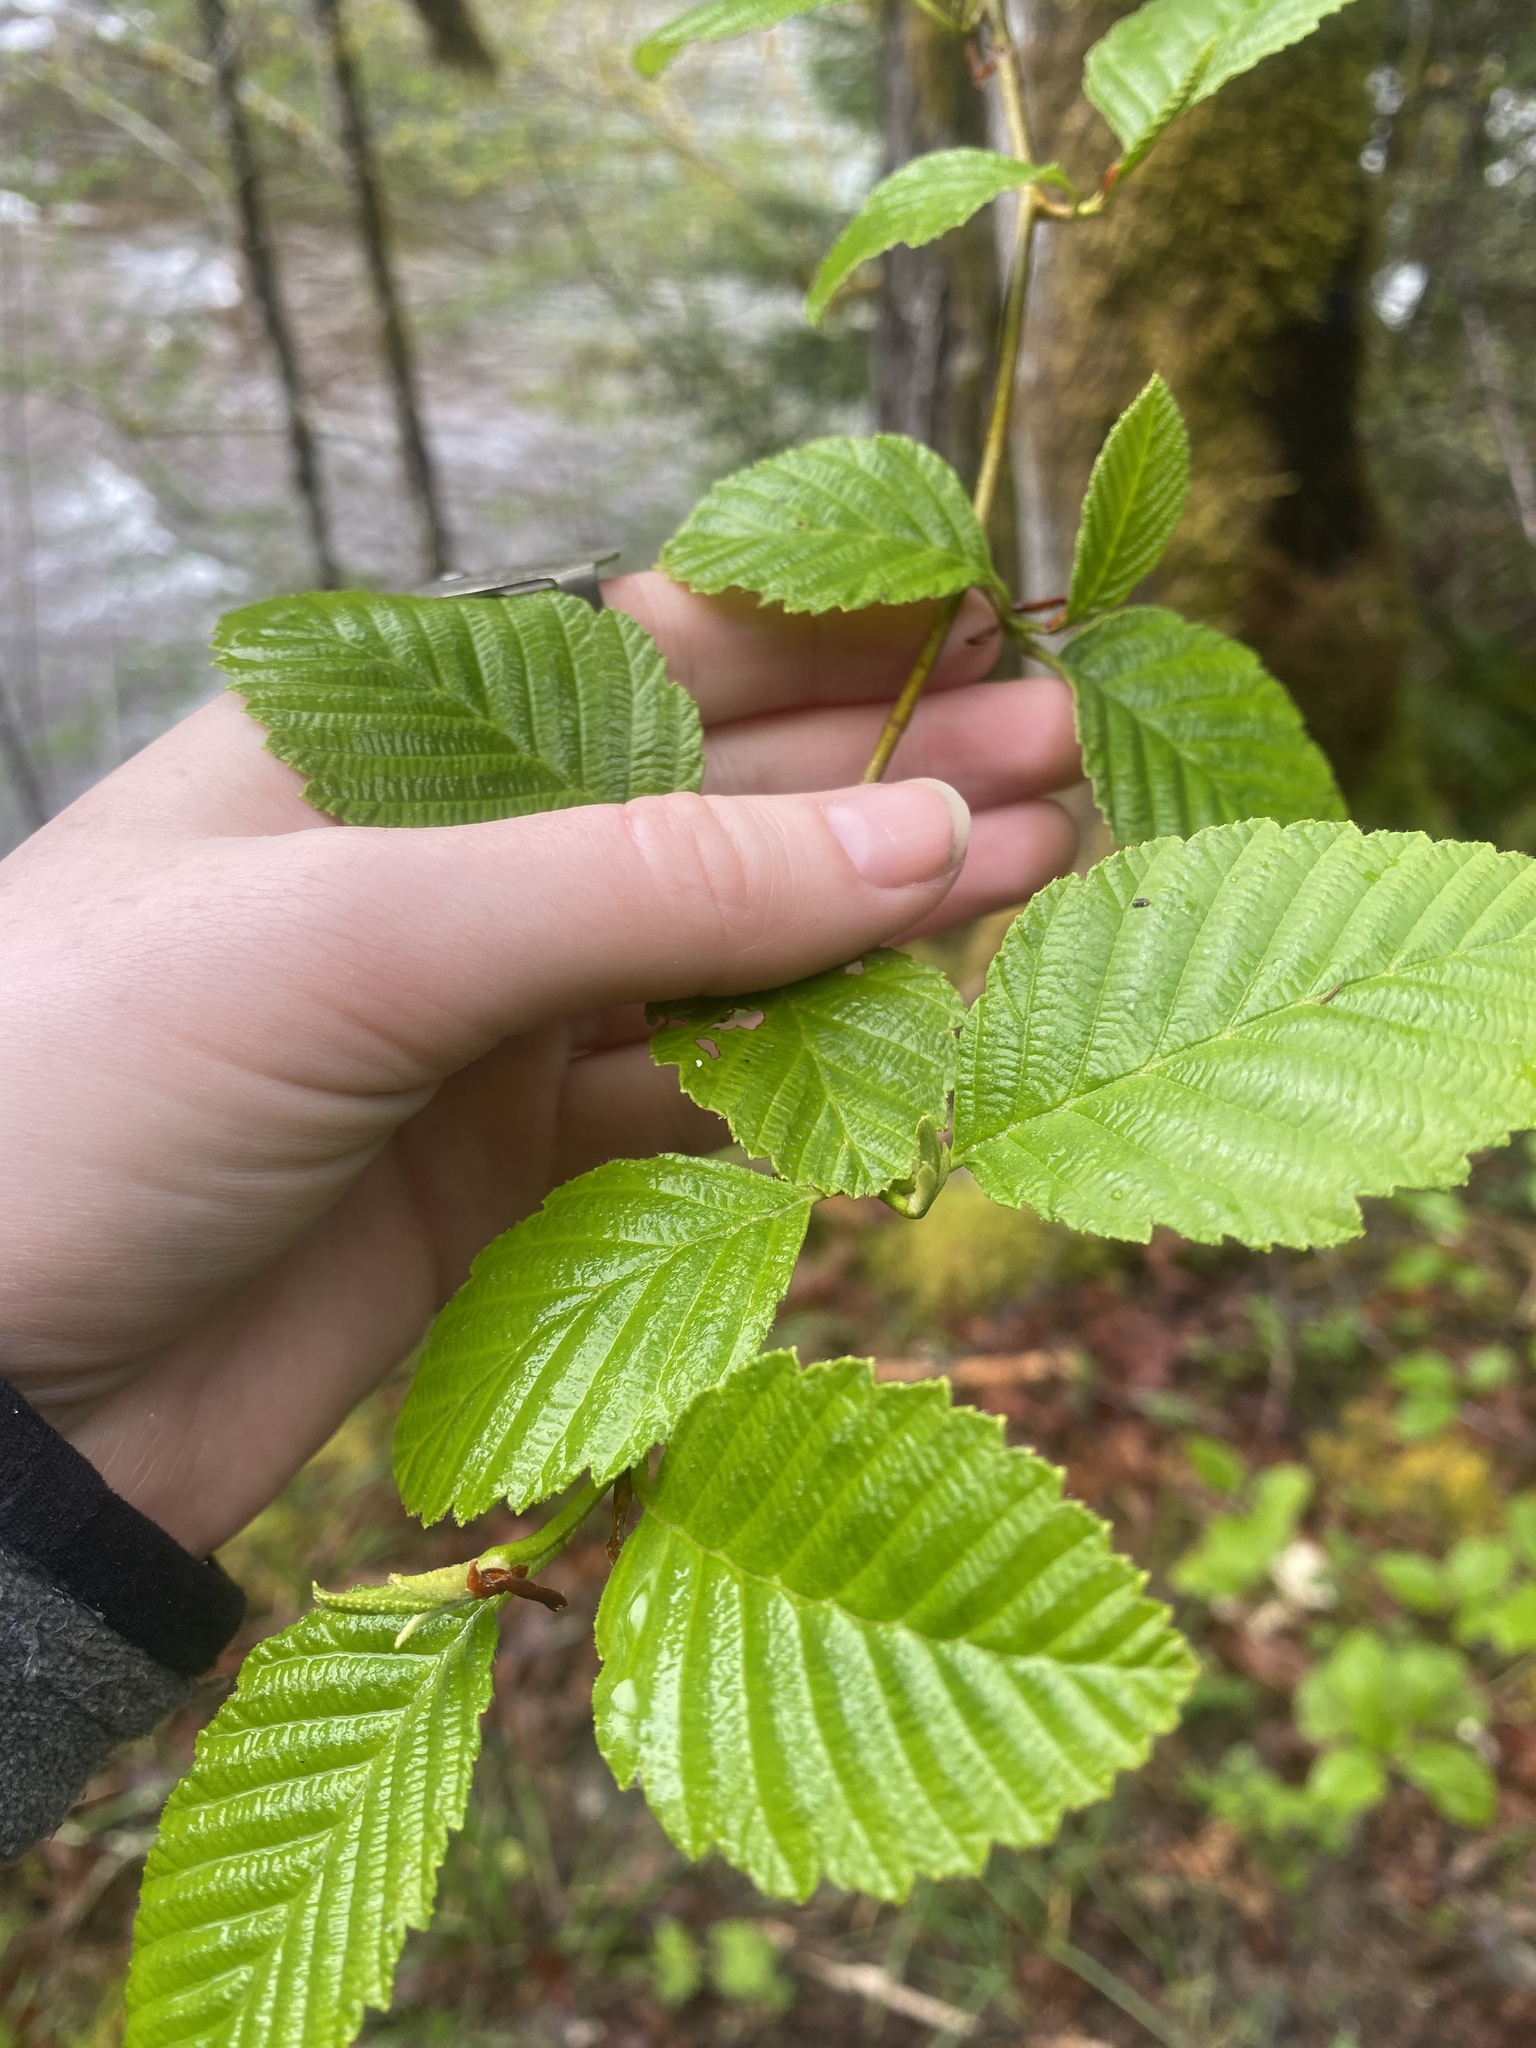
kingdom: Plantae
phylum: Tracheophyta
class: Magnoliopsida
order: Fagales
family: Betulaceae
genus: Alnus
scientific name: Alnus rubra
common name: Red alder
